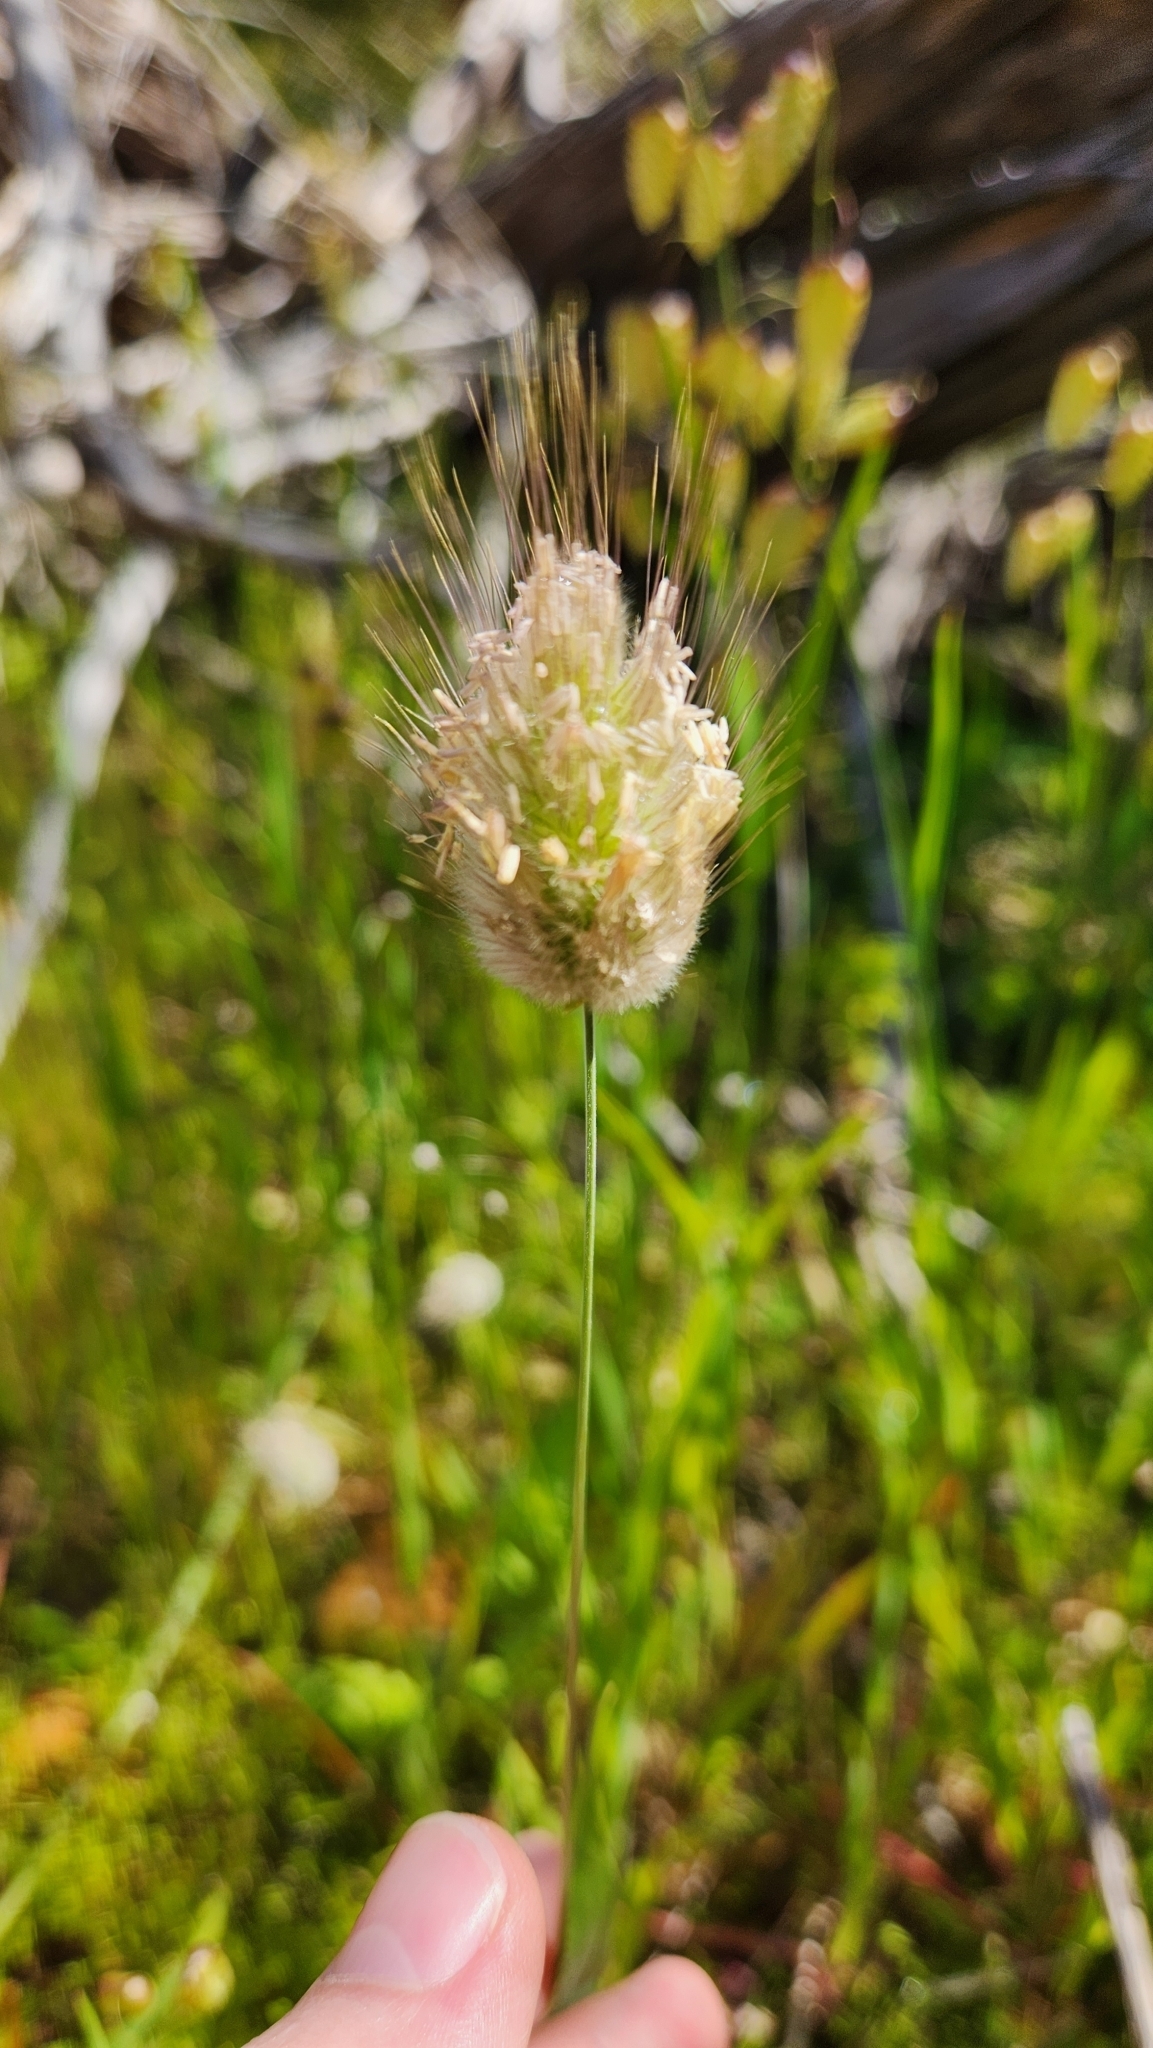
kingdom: Plantae
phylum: Tracheophyta
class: Liliopsida
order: Poales
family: Poaceae
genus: Lagurus
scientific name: Lagurus ovatus
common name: Hare's-tail
